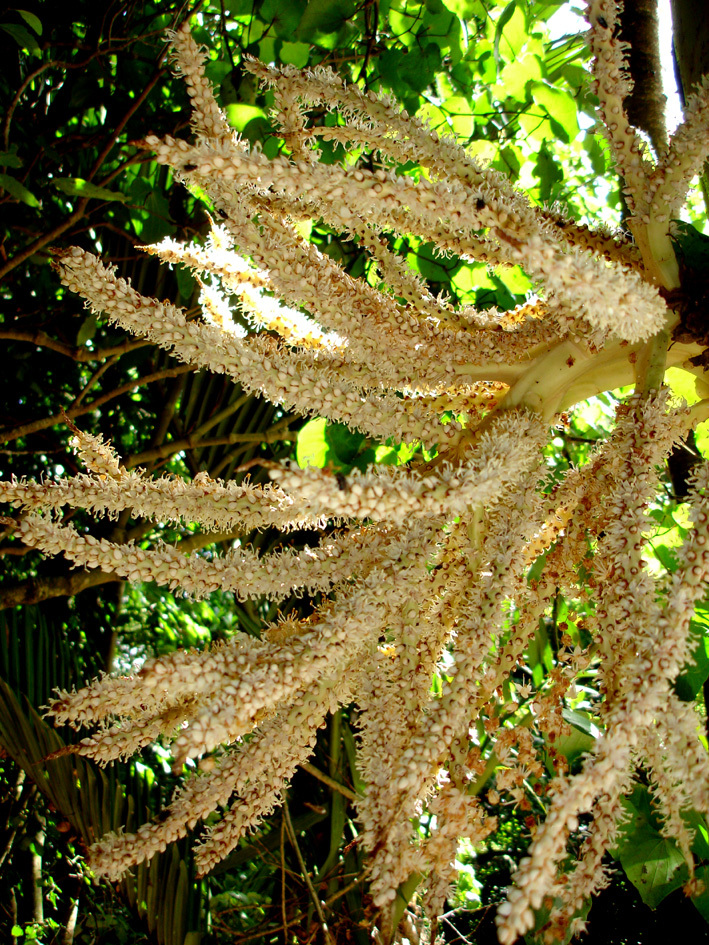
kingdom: Plantae
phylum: Tracheophyta
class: Liliopsida
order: Arecales
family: Arecaceae
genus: Rhopalostylis
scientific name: Rhopalostylis sapida
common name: Feather-duster palm
